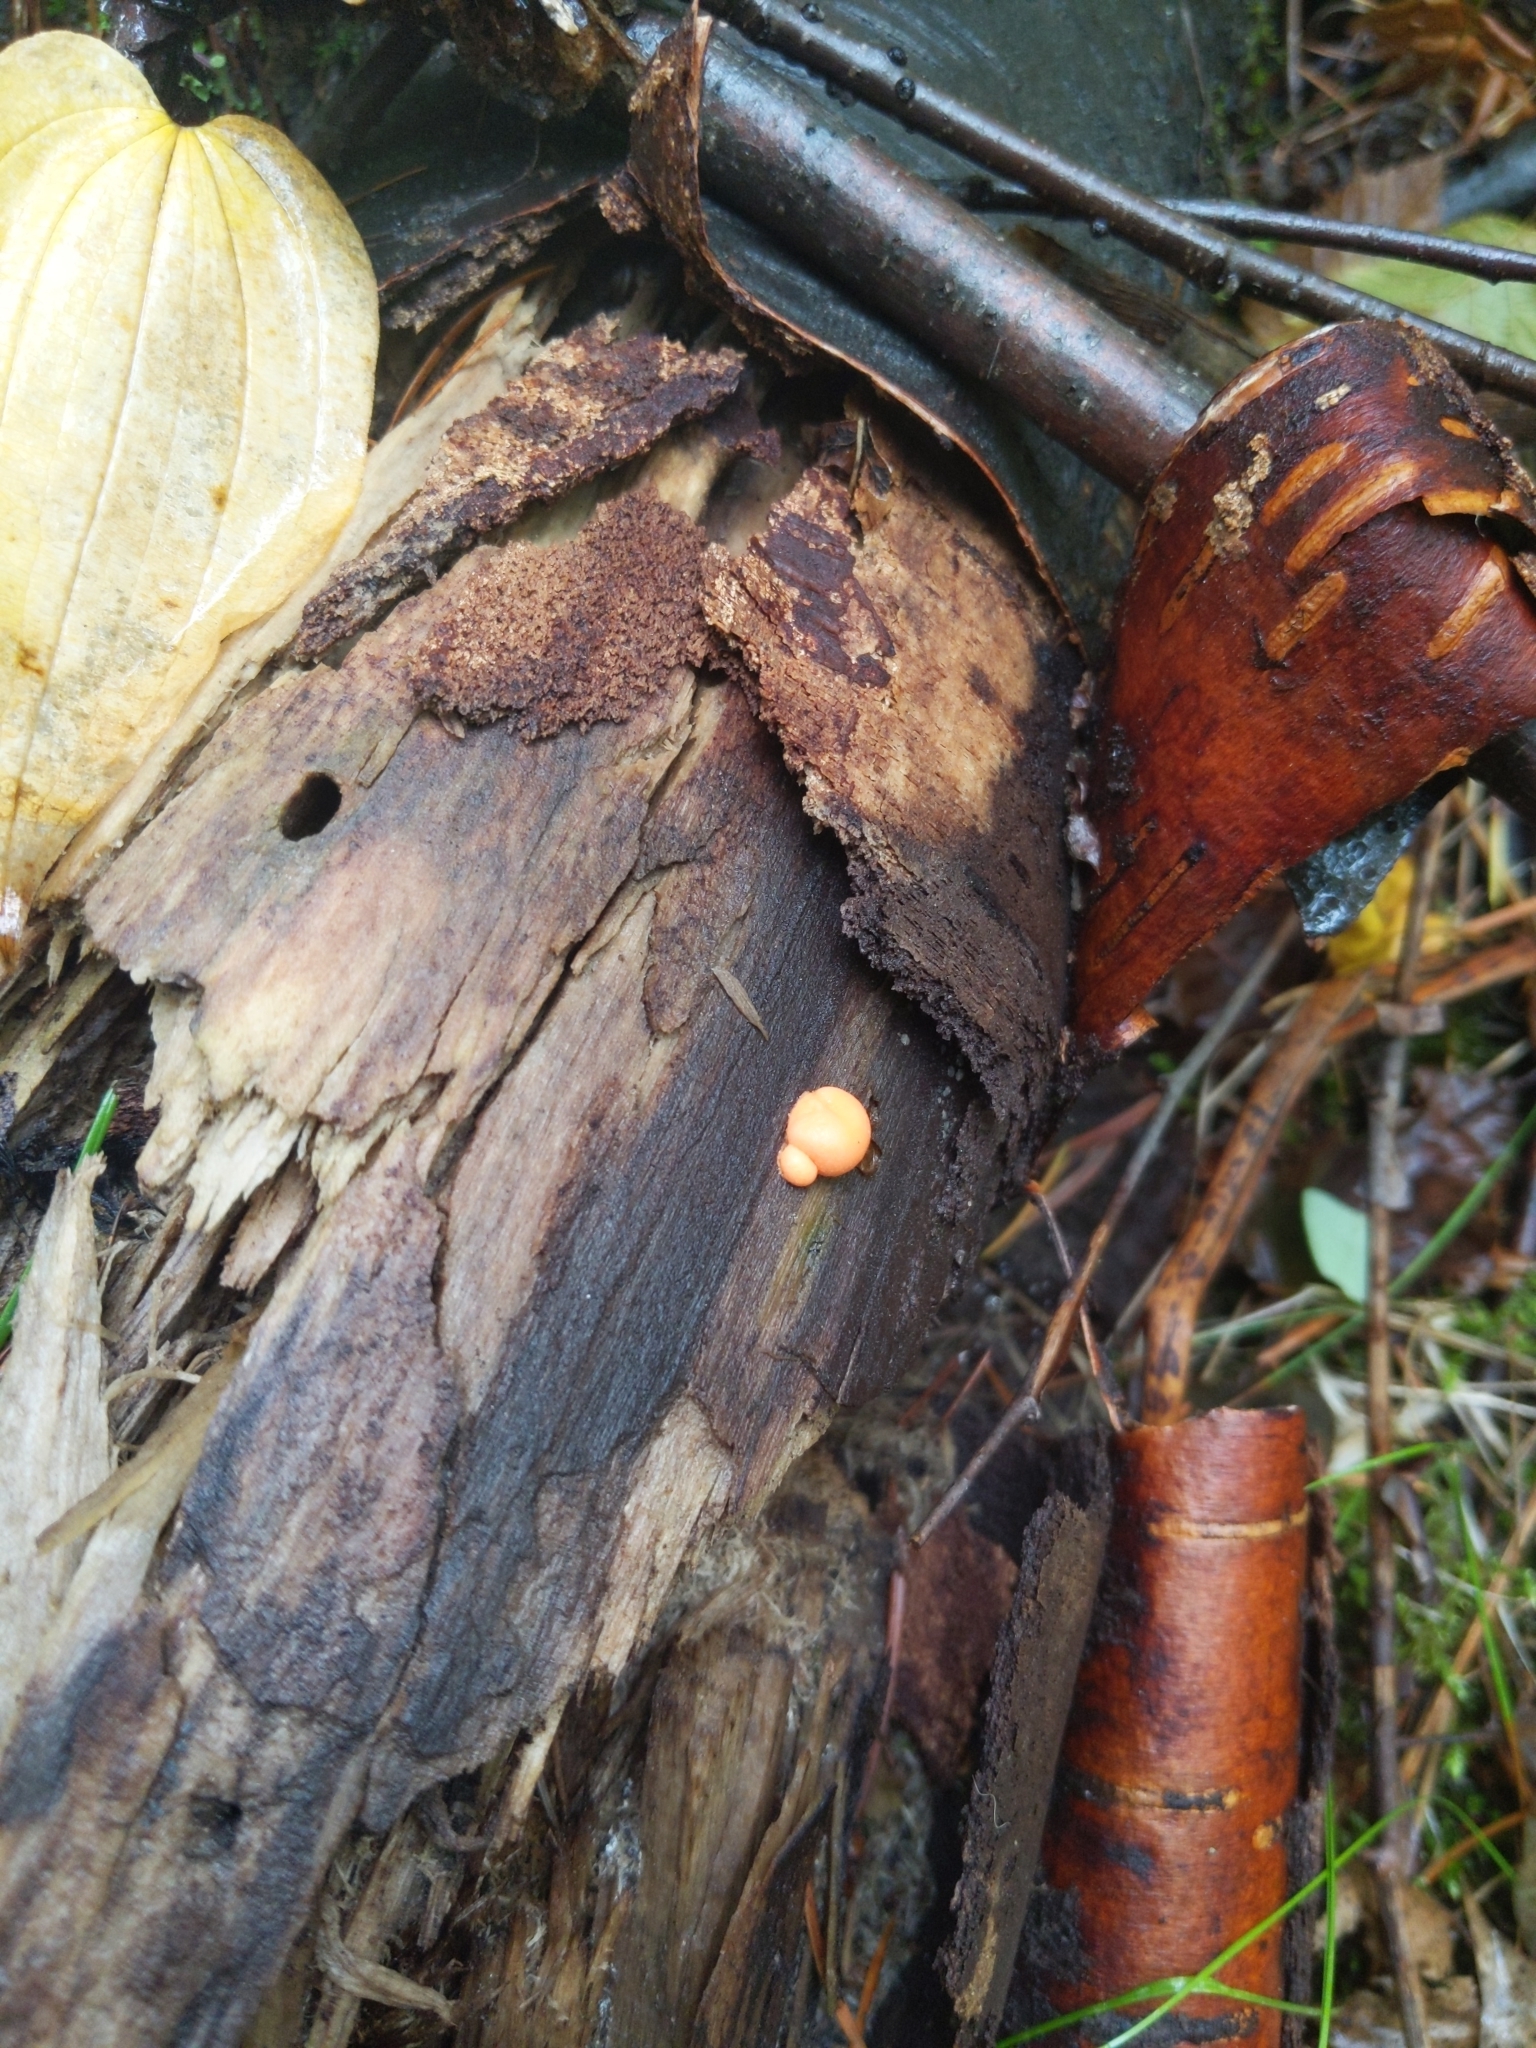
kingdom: Protozoa
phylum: Mycetozoa
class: Myxomycetes
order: Cribrariales
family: Tubiferaceae
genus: Lycogala
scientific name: Lycogala epidendrum
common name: Wolf's milk
